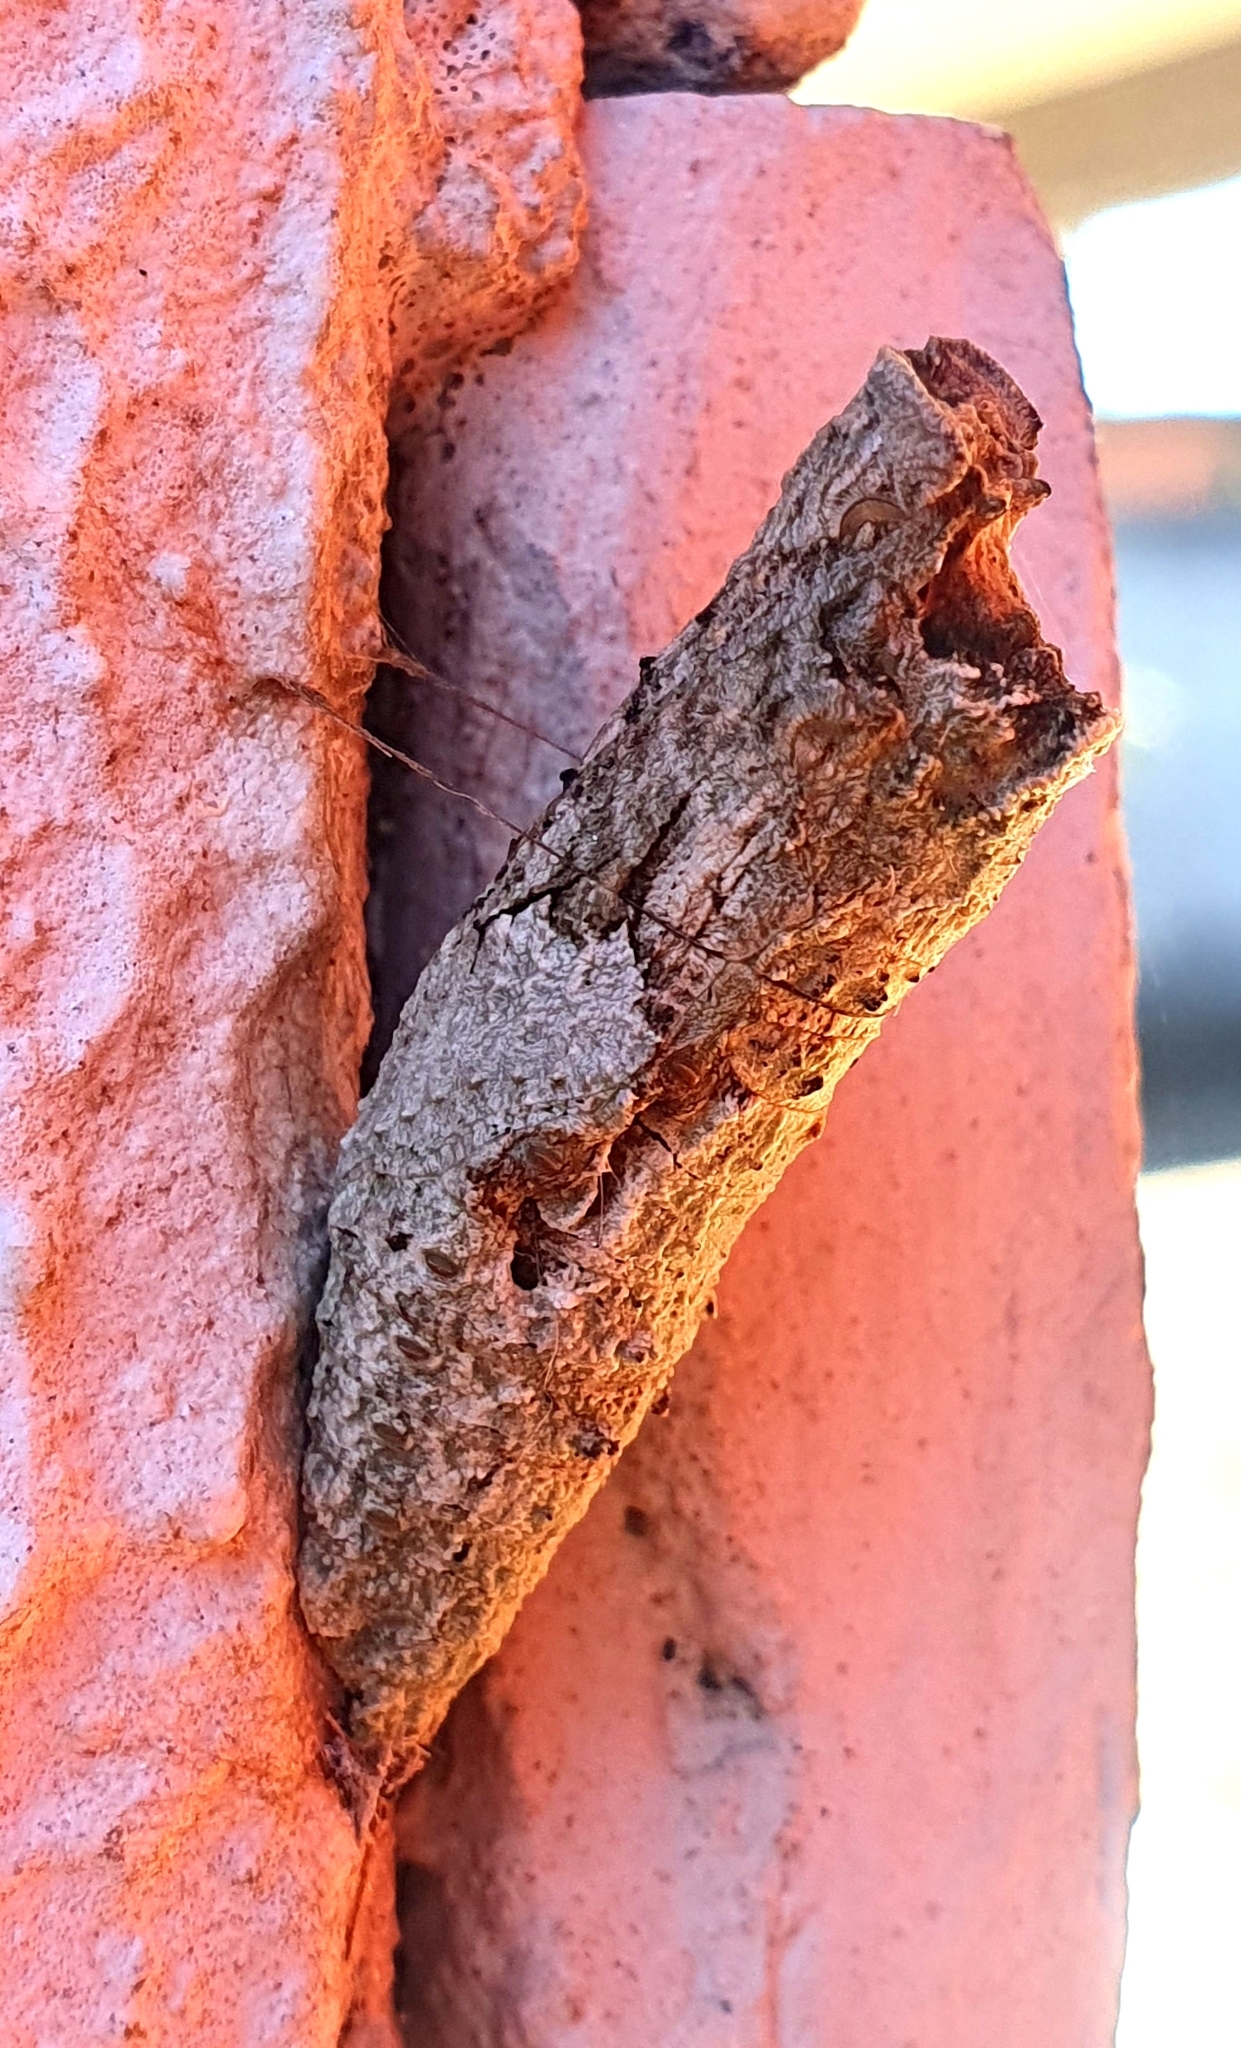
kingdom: Animalia
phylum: Arthropoda
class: Insecta
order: Lepidoptera
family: Papilionidae
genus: Papilio
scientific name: Papilio anchisiades
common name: Idaes swallowtail
